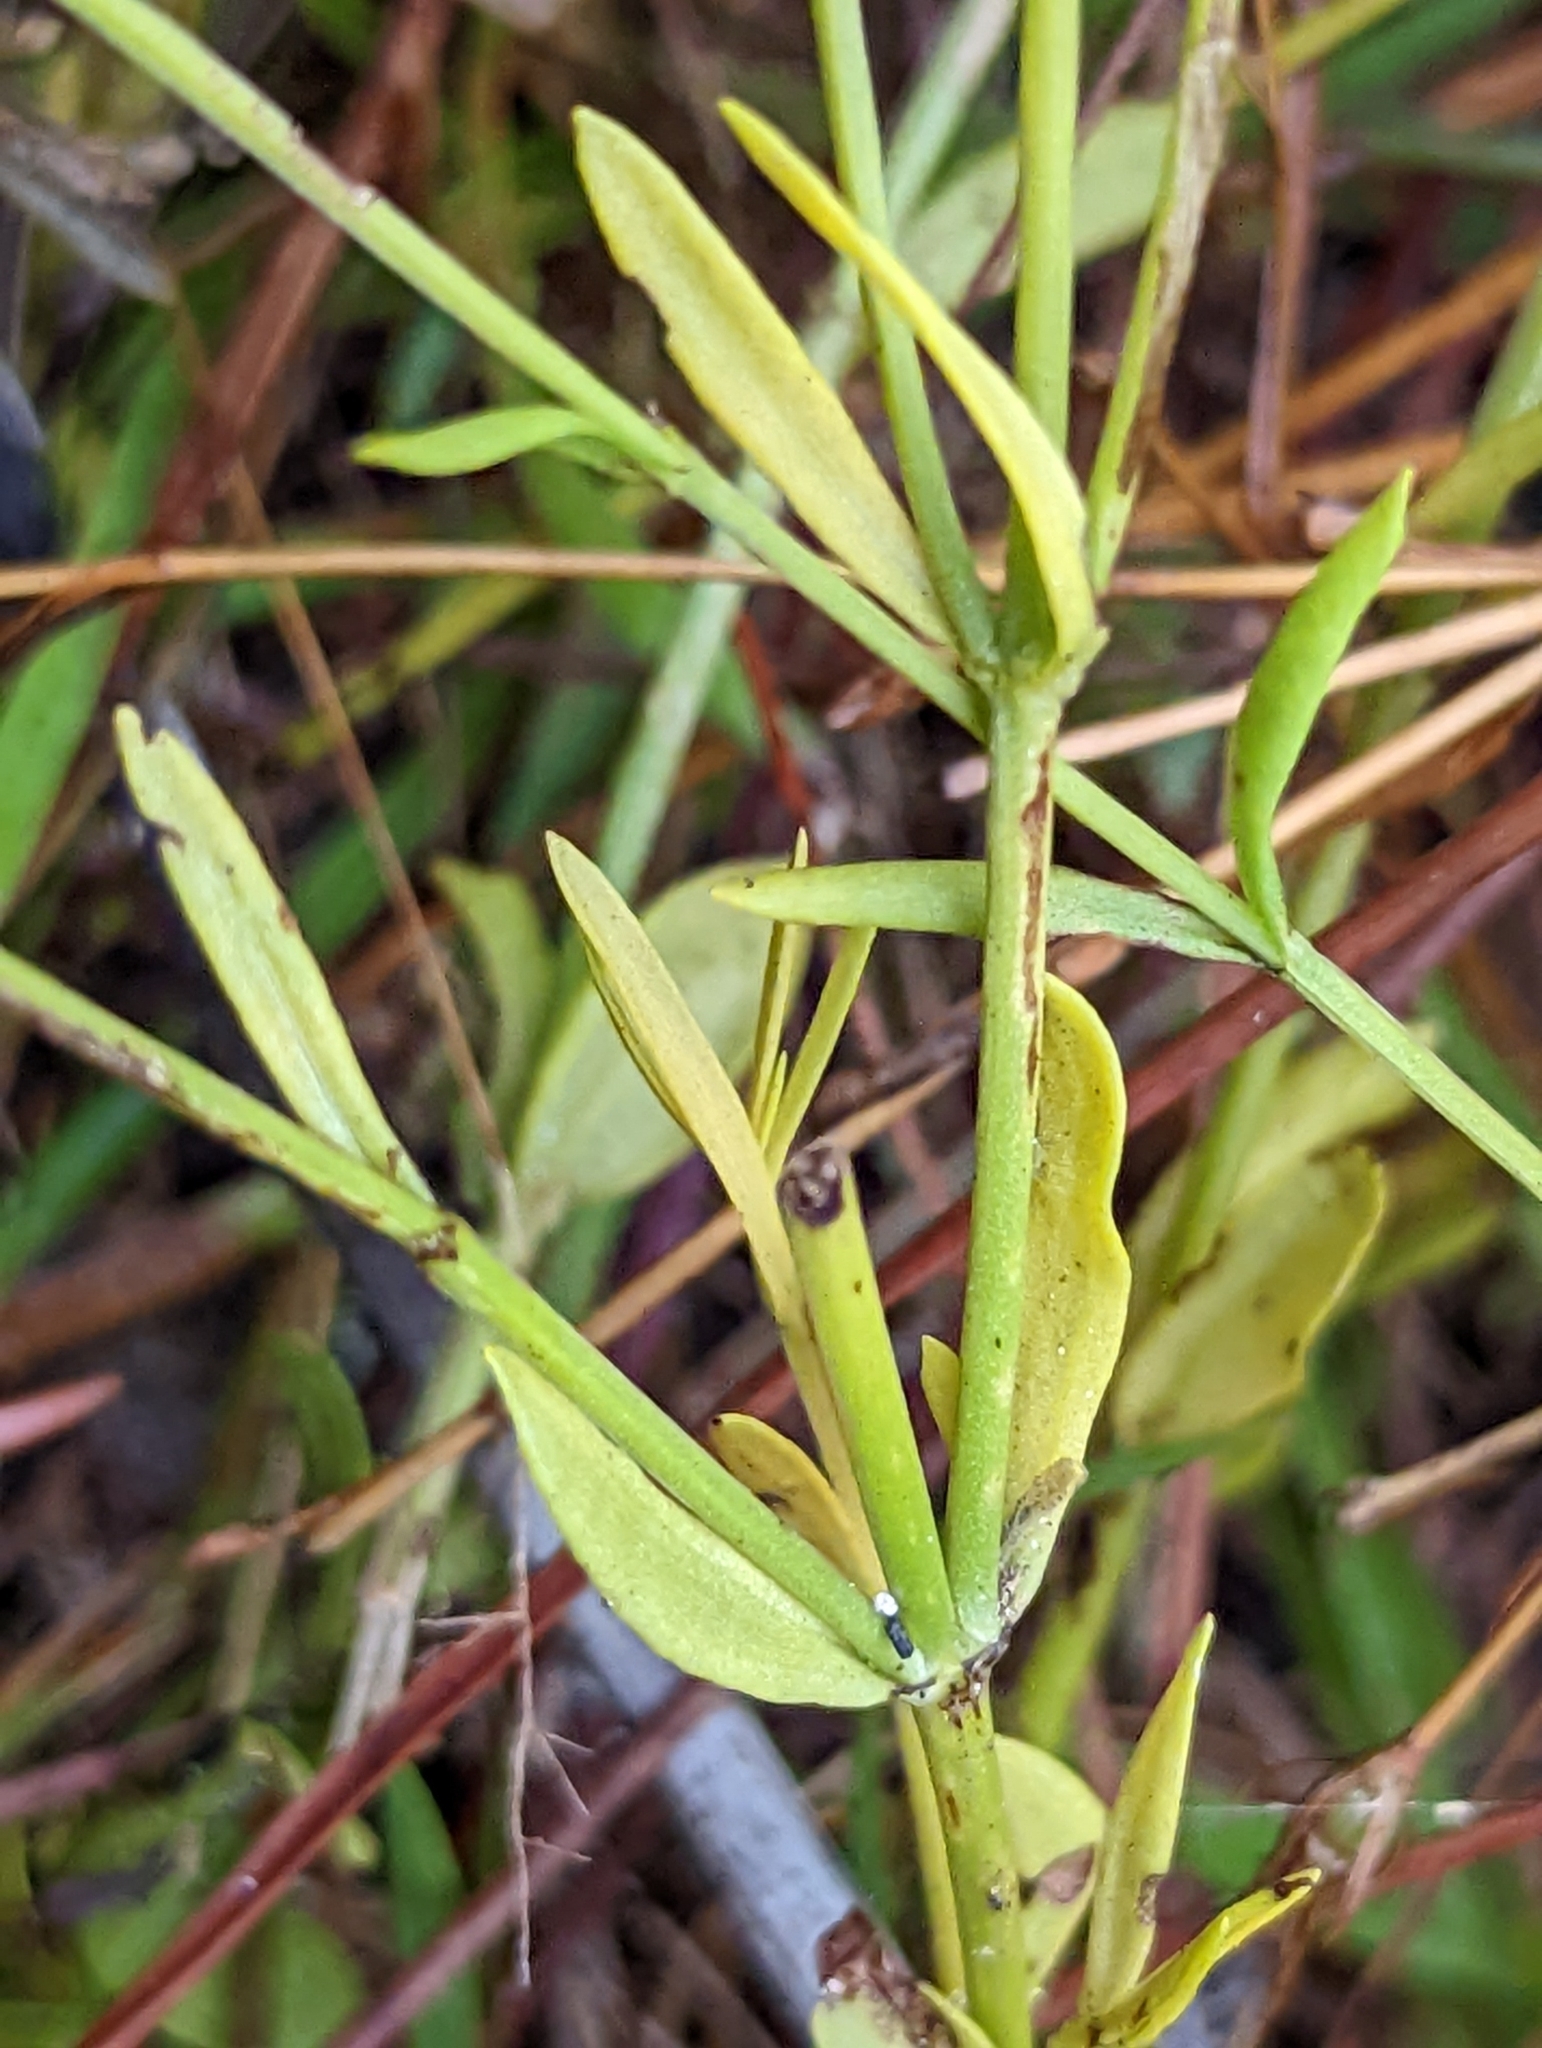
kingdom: Plantae
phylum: Tracheophyta
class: Magnoliopsida
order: Gentianales
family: Gentianaceae
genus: Sabatia
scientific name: Sabatia brevifolia
